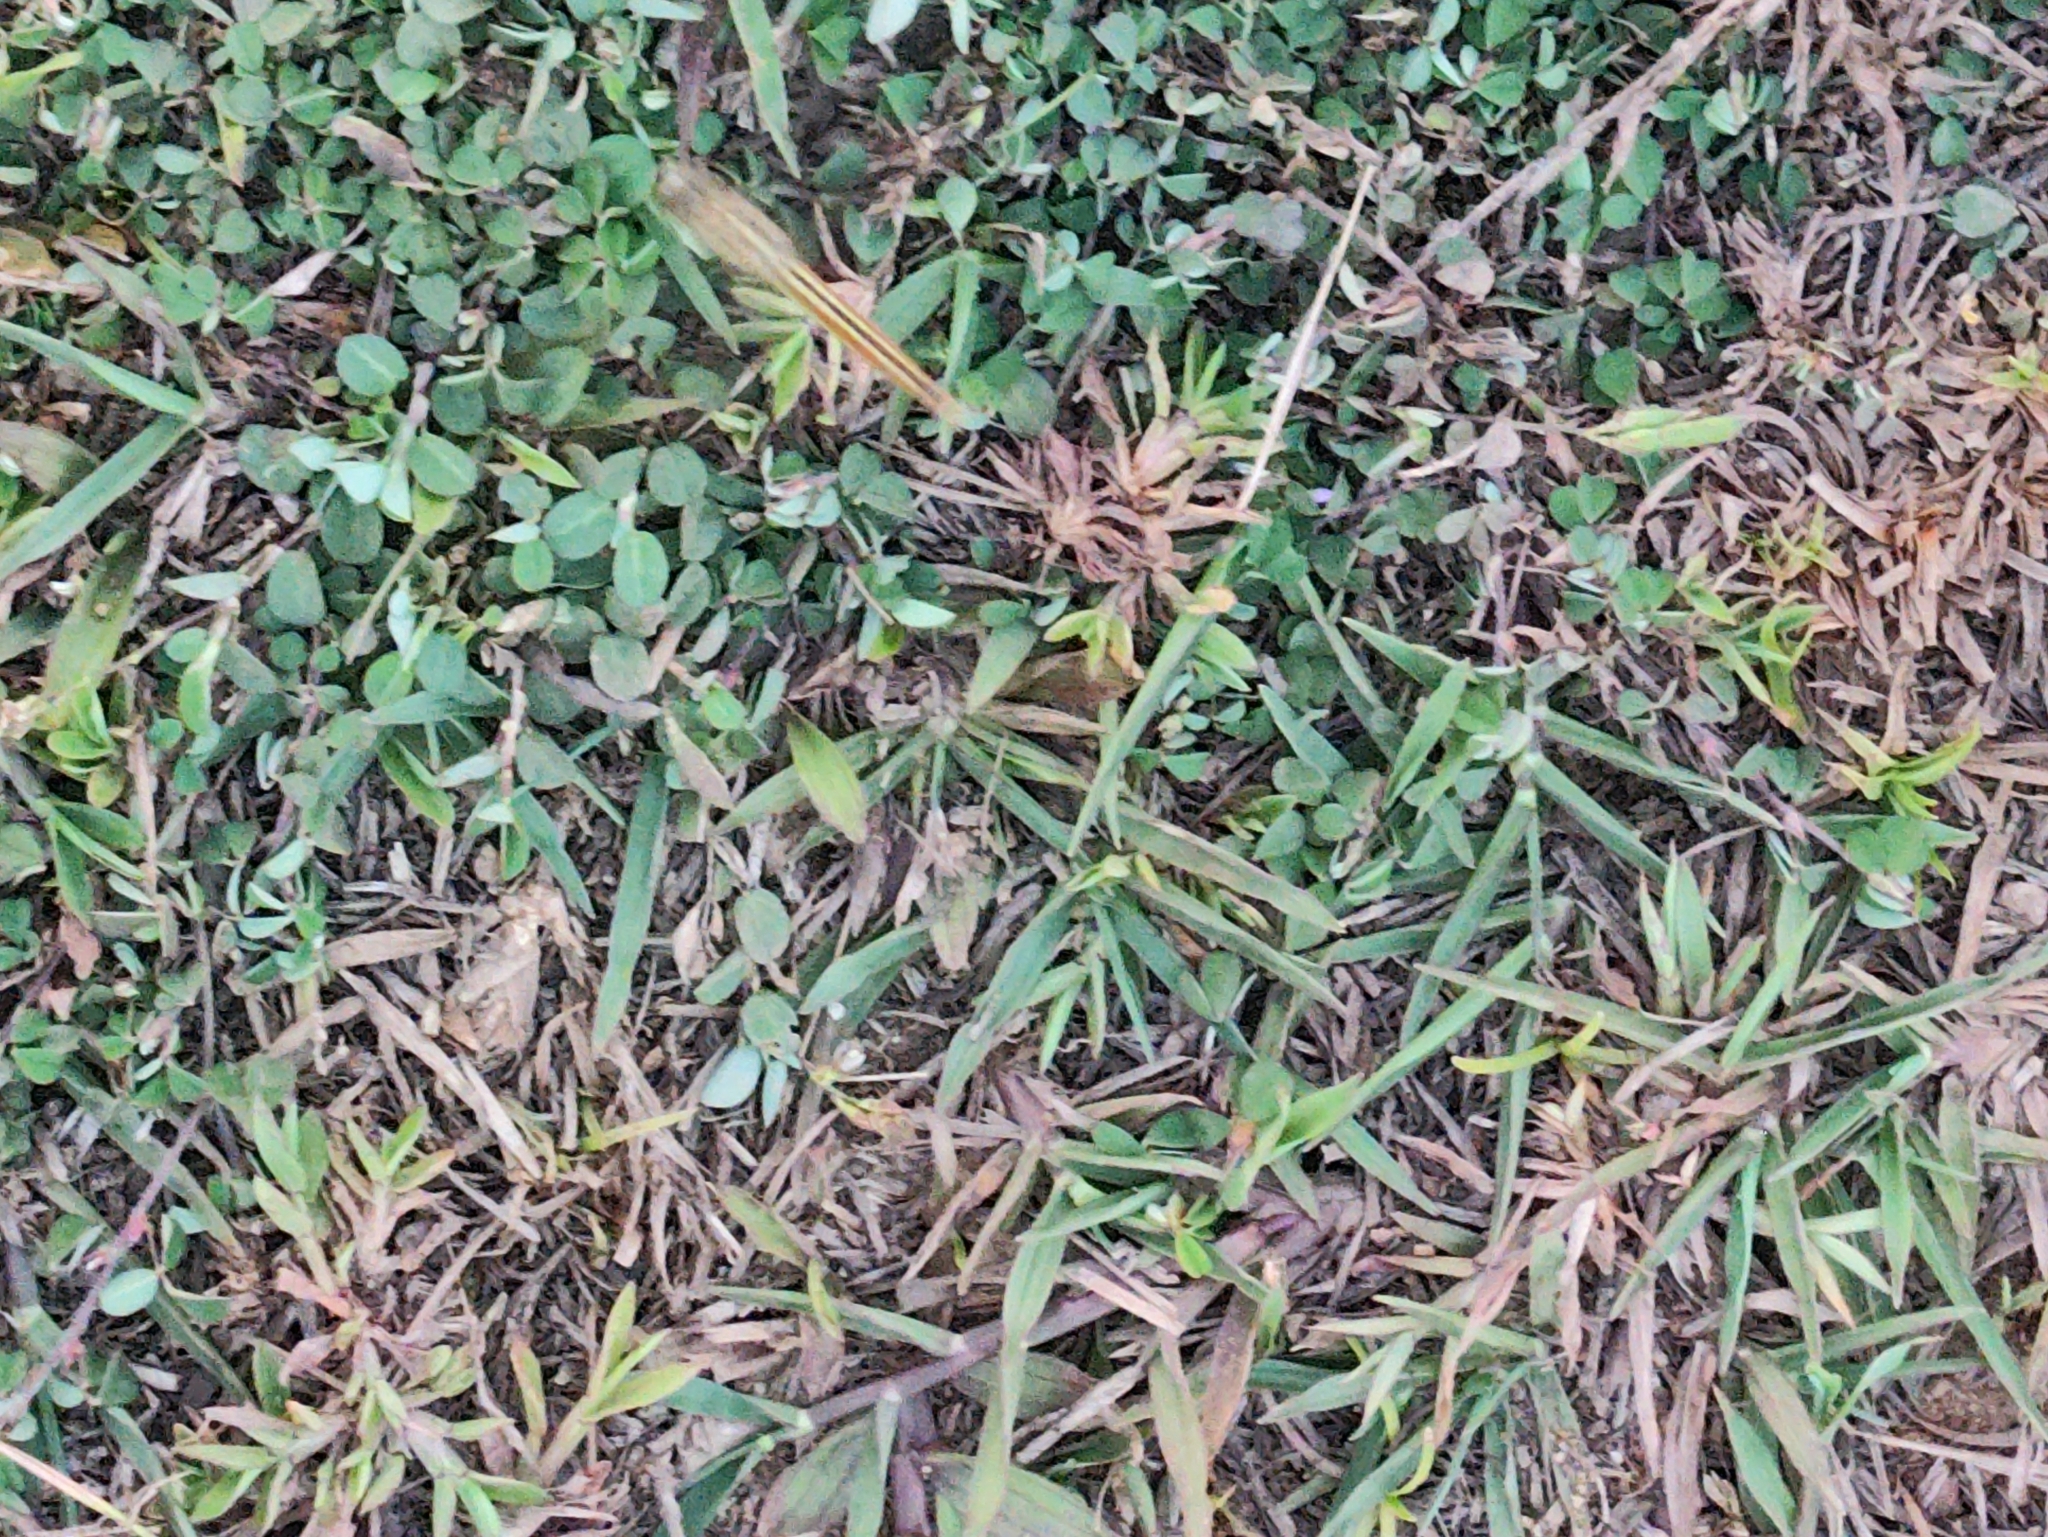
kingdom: Animalia
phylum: Arthropoda
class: Insecta
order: Odonata
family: Libellulidae
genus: Brachythemis
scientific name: Brachythemis contaminata
